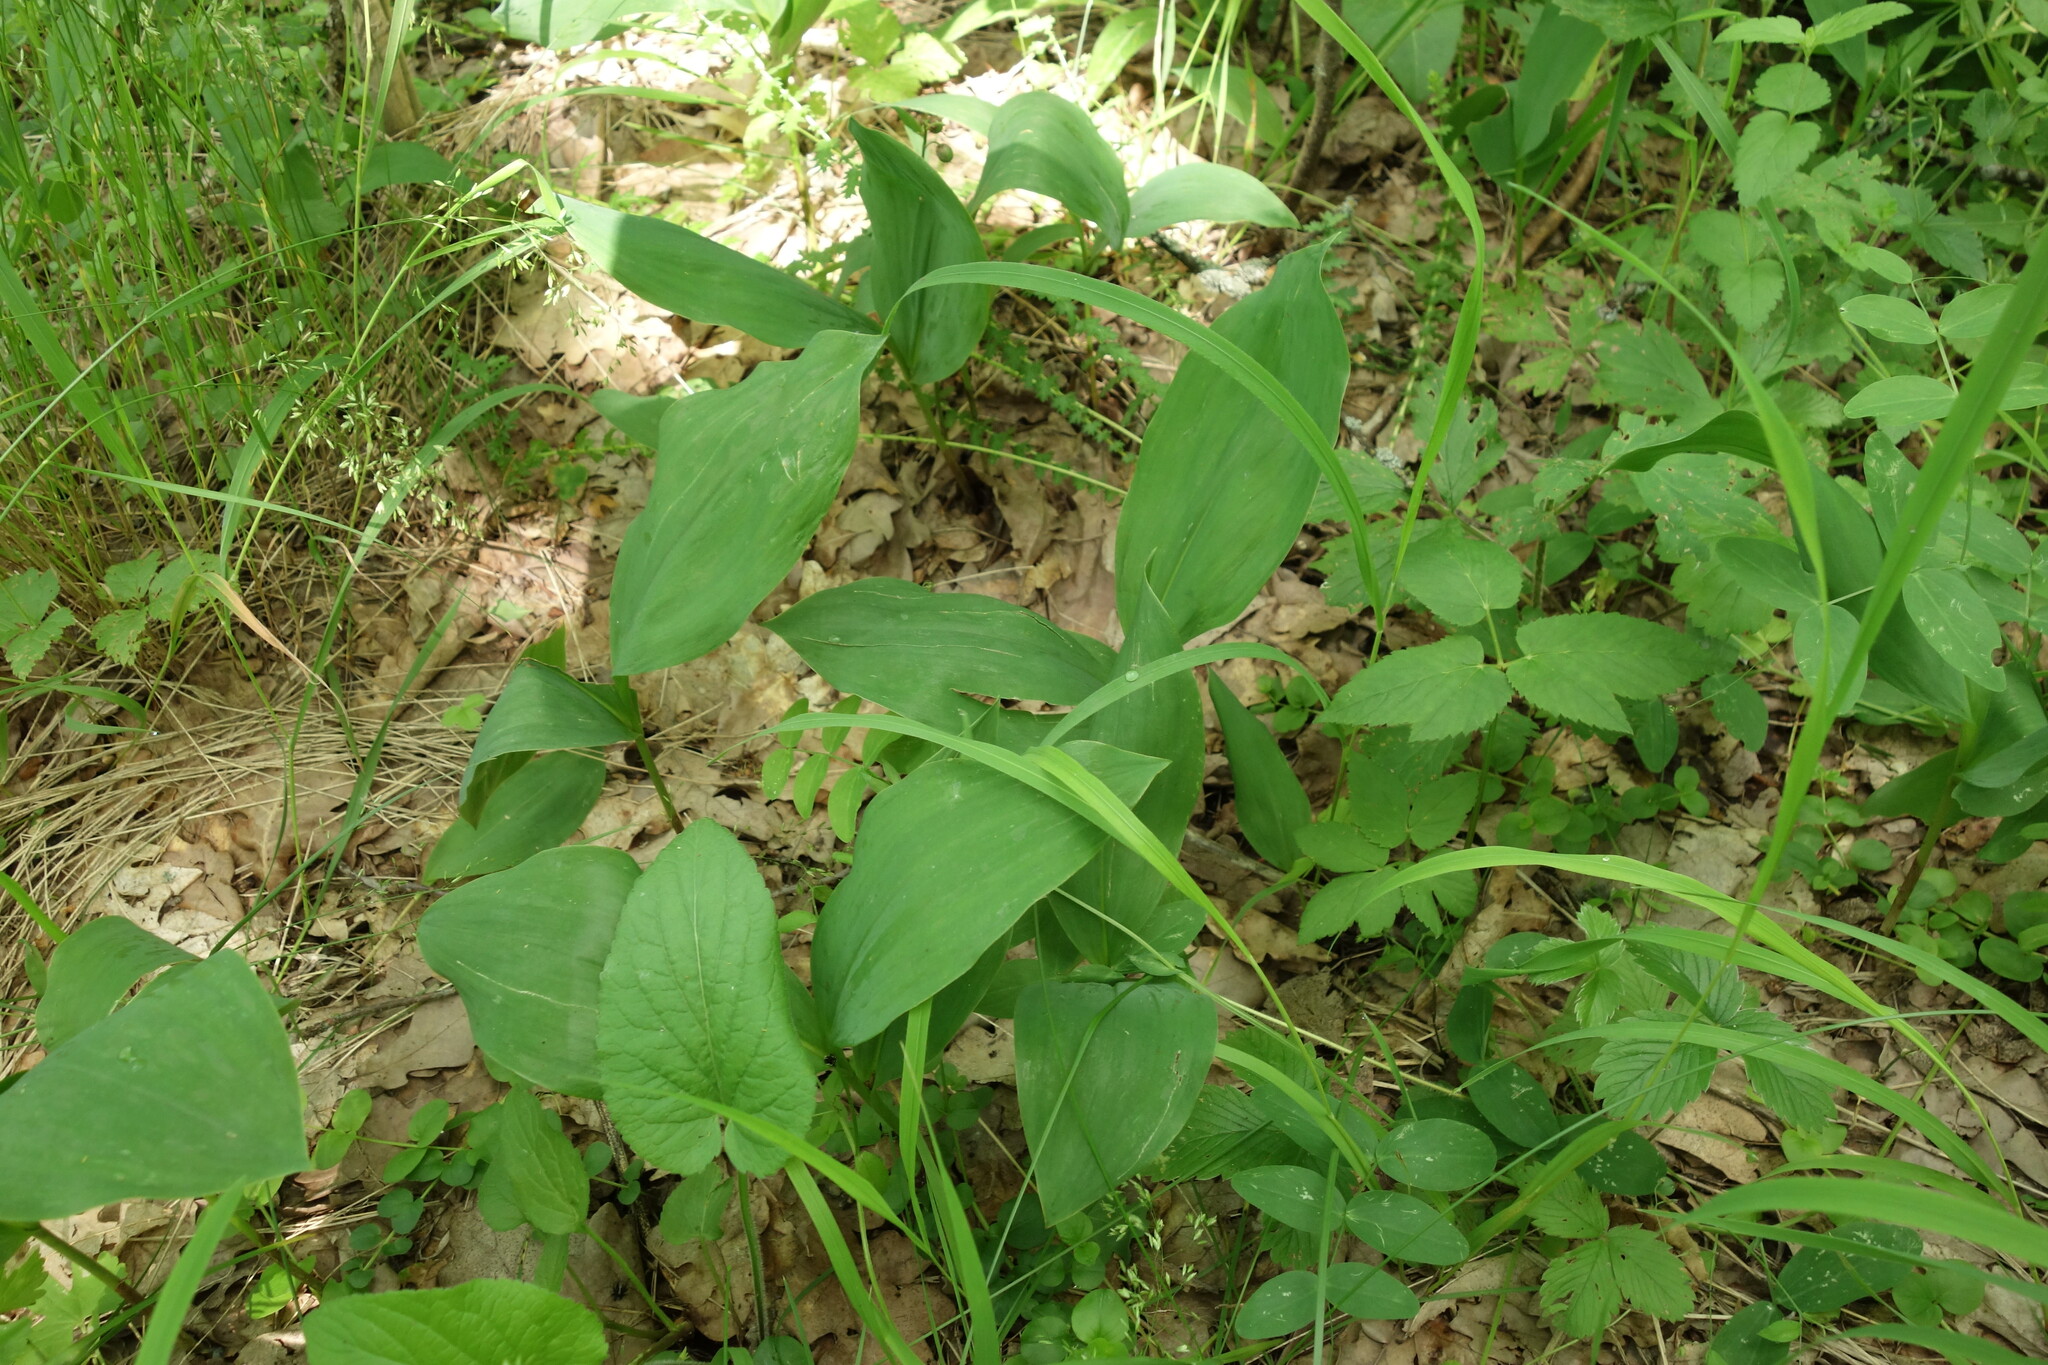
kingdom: Plantae
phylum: Tracheophyta
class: Liliopsida
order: Asparagales
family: Asparagaceae
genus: Convallaria
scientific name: Convallaria majalis
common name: Lily-of-the-valley
